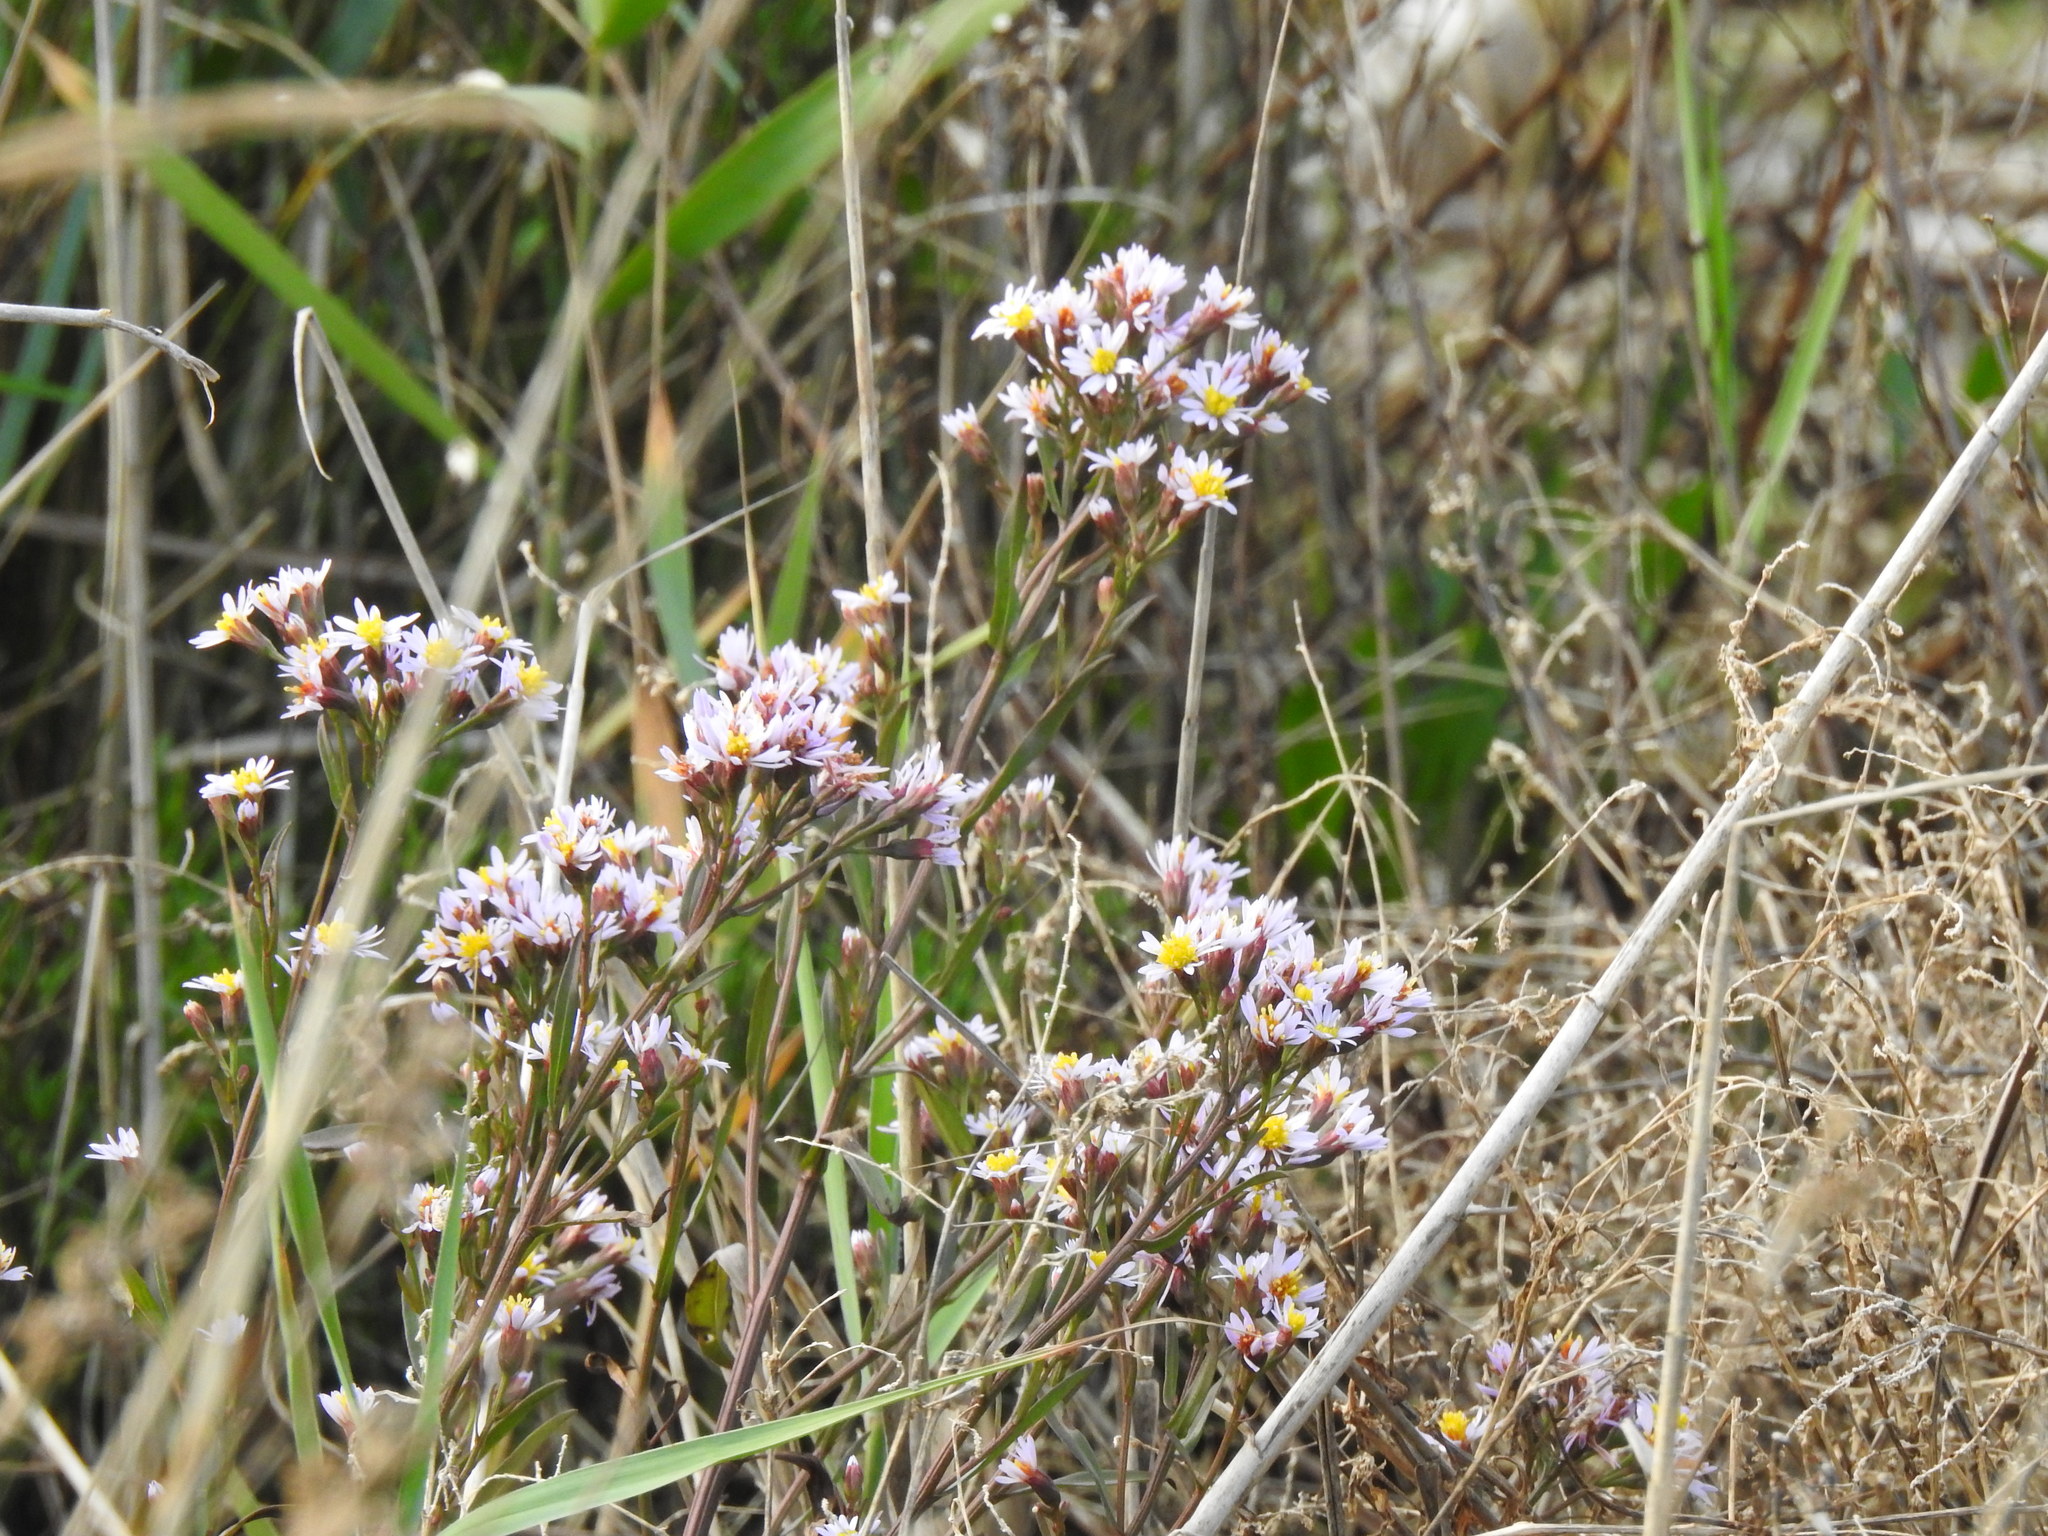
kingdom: Plantae
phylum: Tracheophyta
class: Magnoliopsida
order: Asterales
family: Asteraceae
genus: Tripolium
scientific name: Tripolium pannonicum
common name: Sea aster
